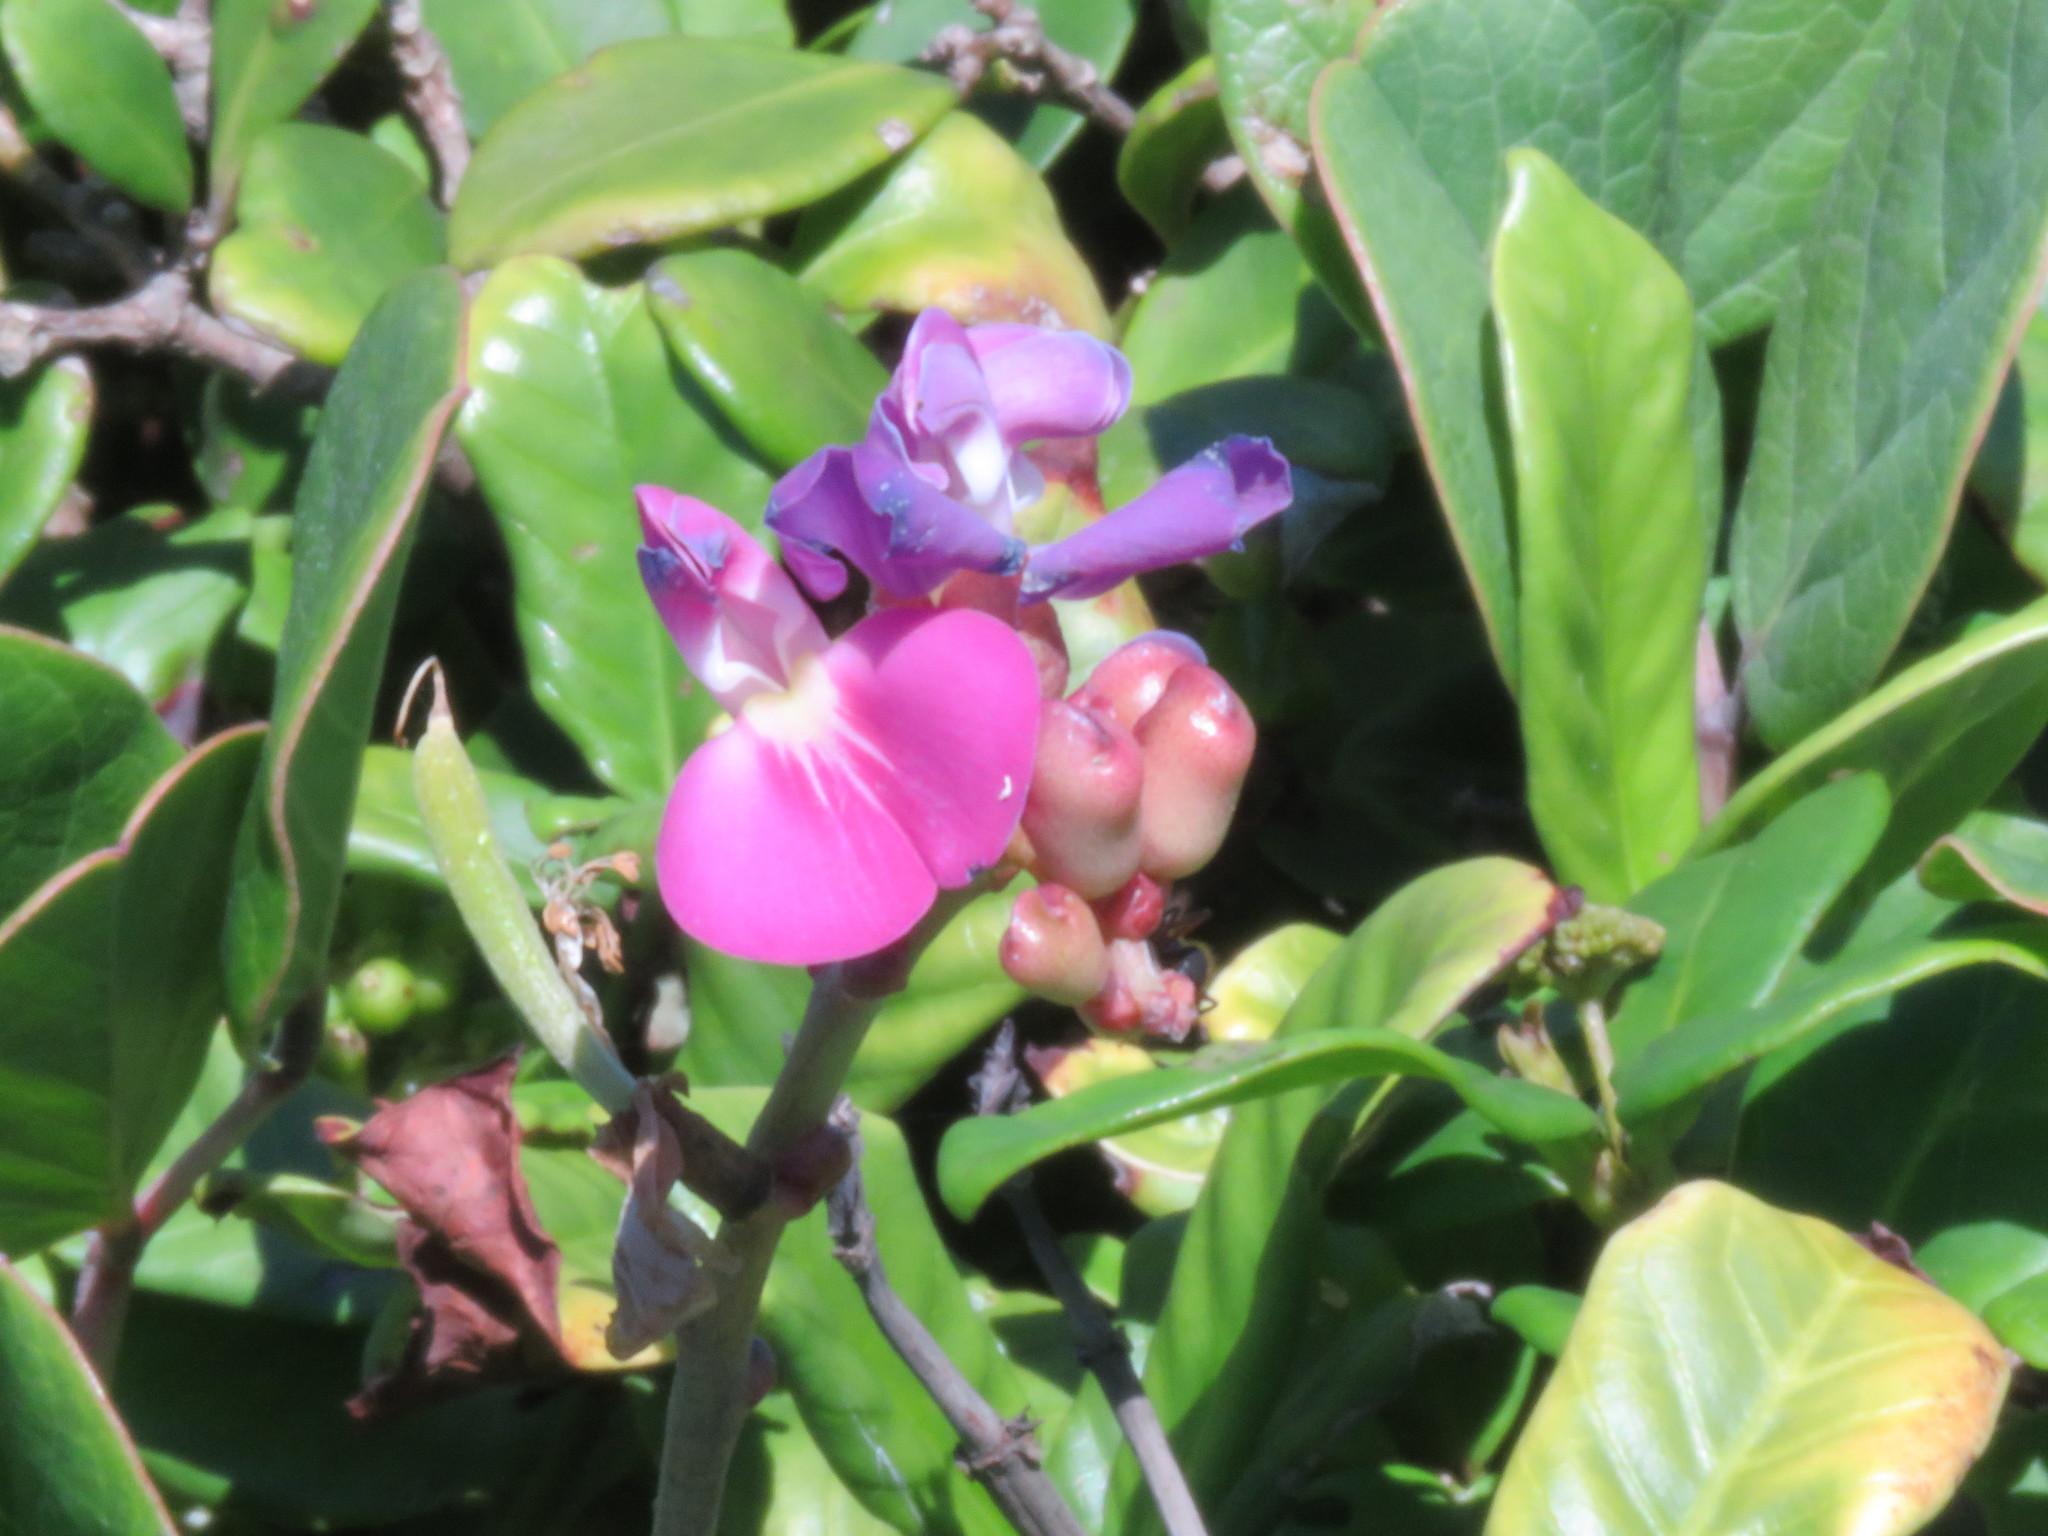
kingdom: Plantae
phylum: Tracheophyta
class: Magnoliopsida
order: Fabales
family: Fabaceae
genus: Canavalia
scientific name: Canavalia rosea
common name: Beach-bean
